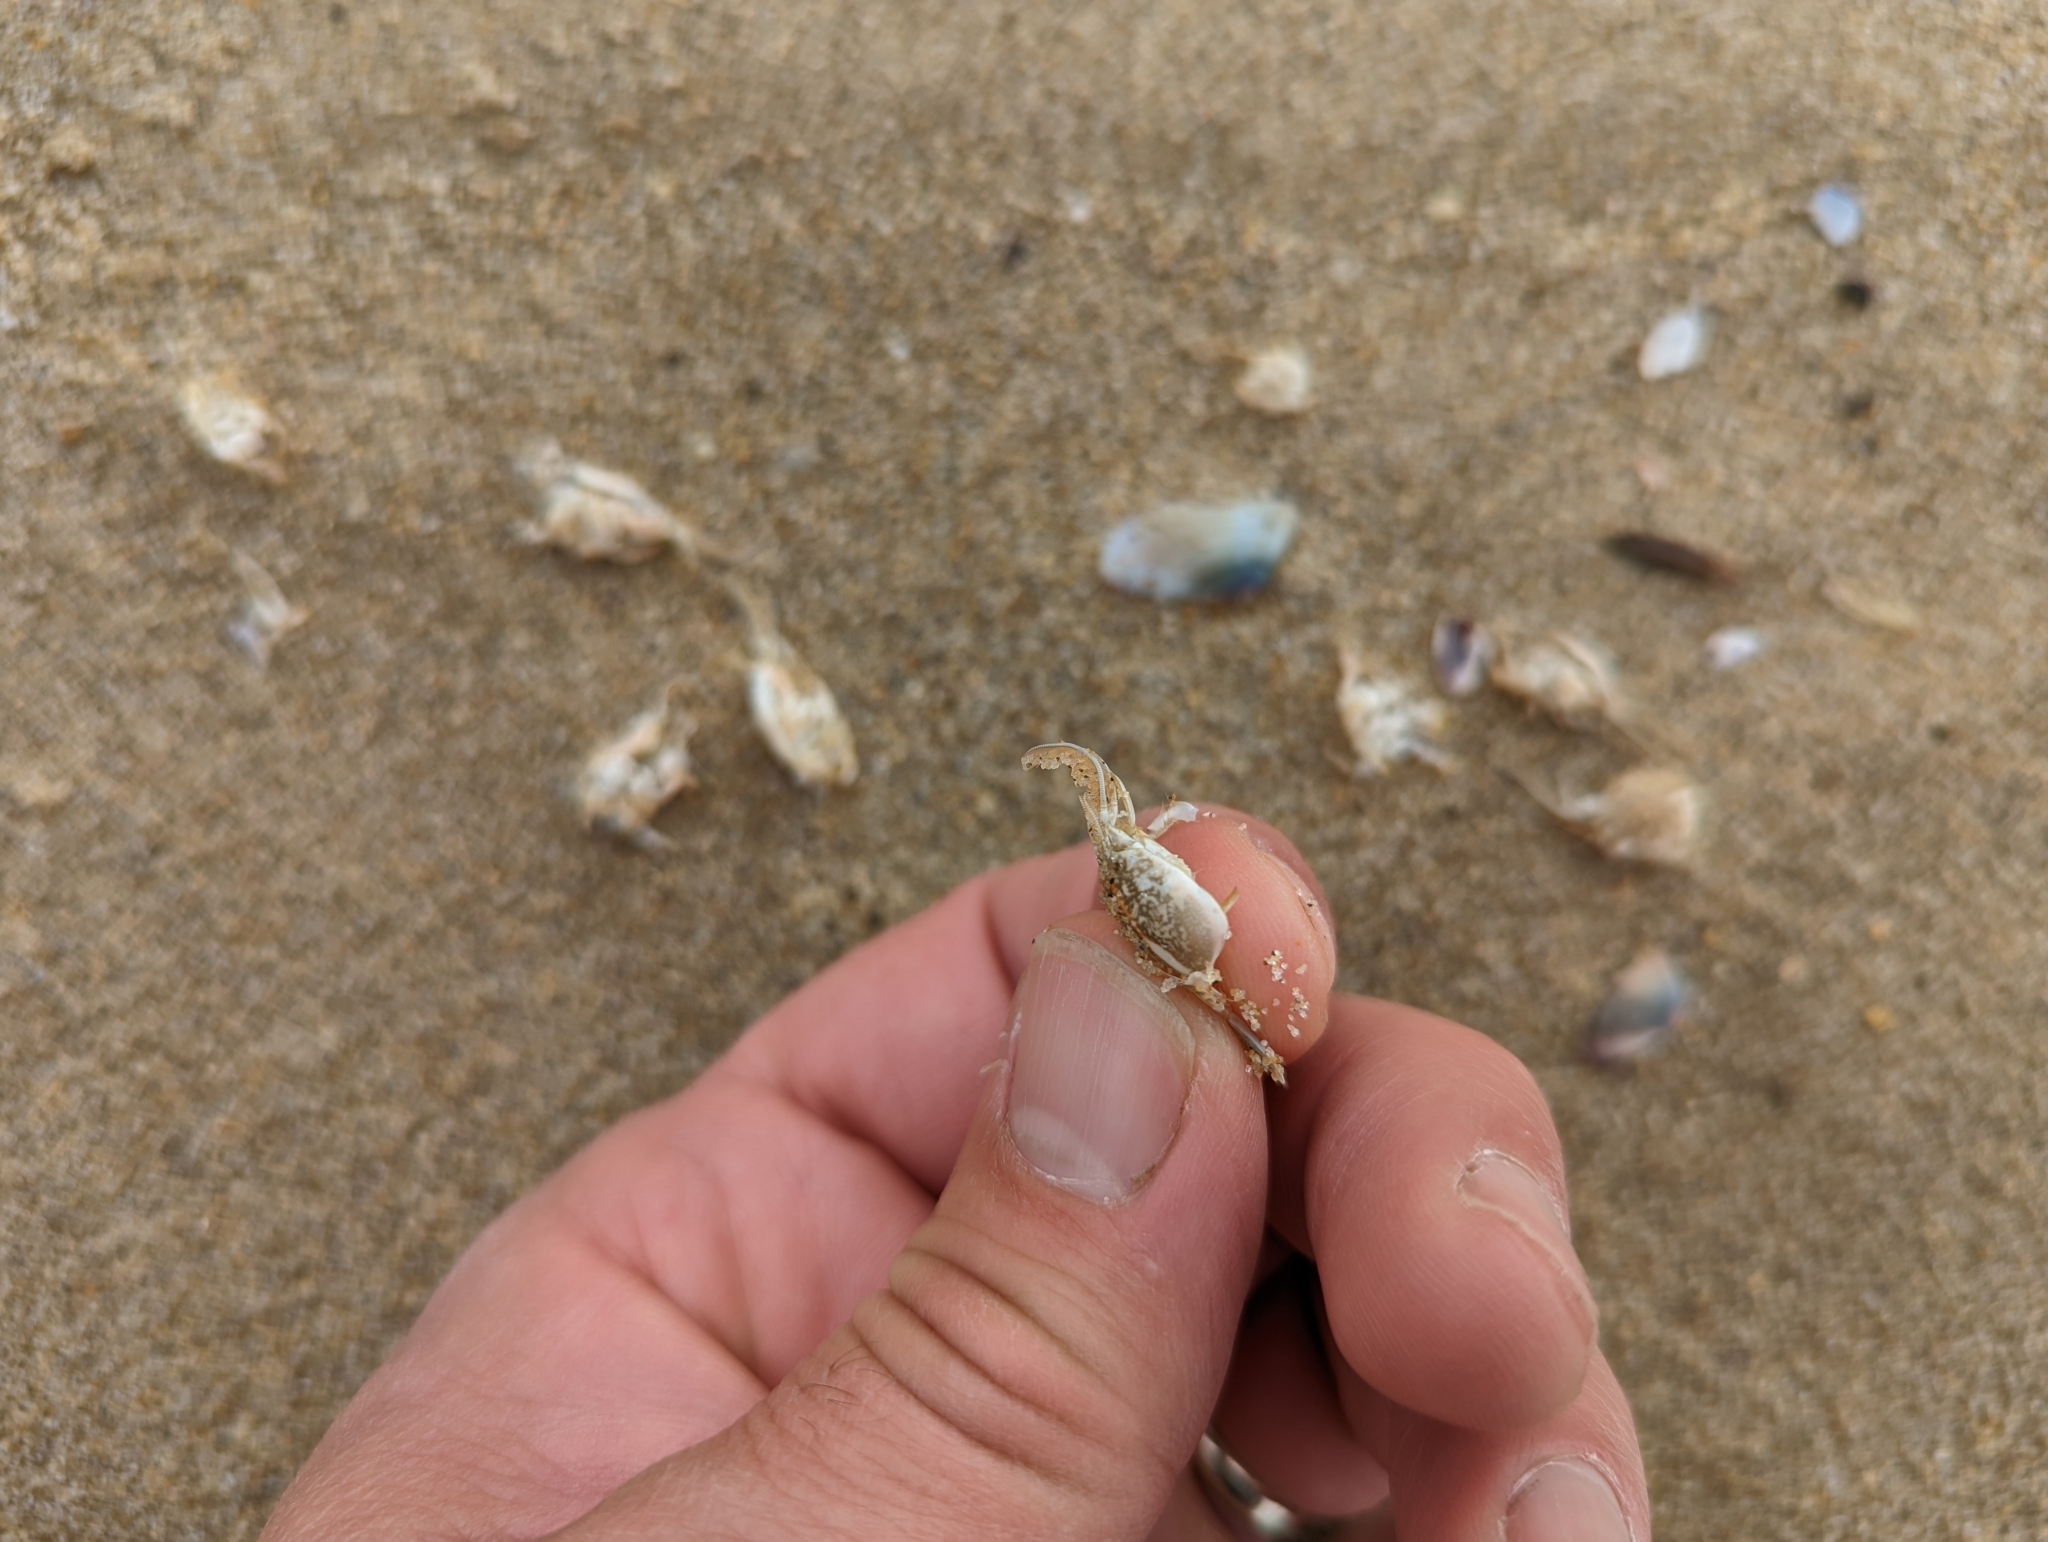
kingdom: Animalia
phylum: Arthropoda
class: Malacostraca
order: Decapoda
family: Hippidae
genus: Emerita
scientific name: Emerita analoga
